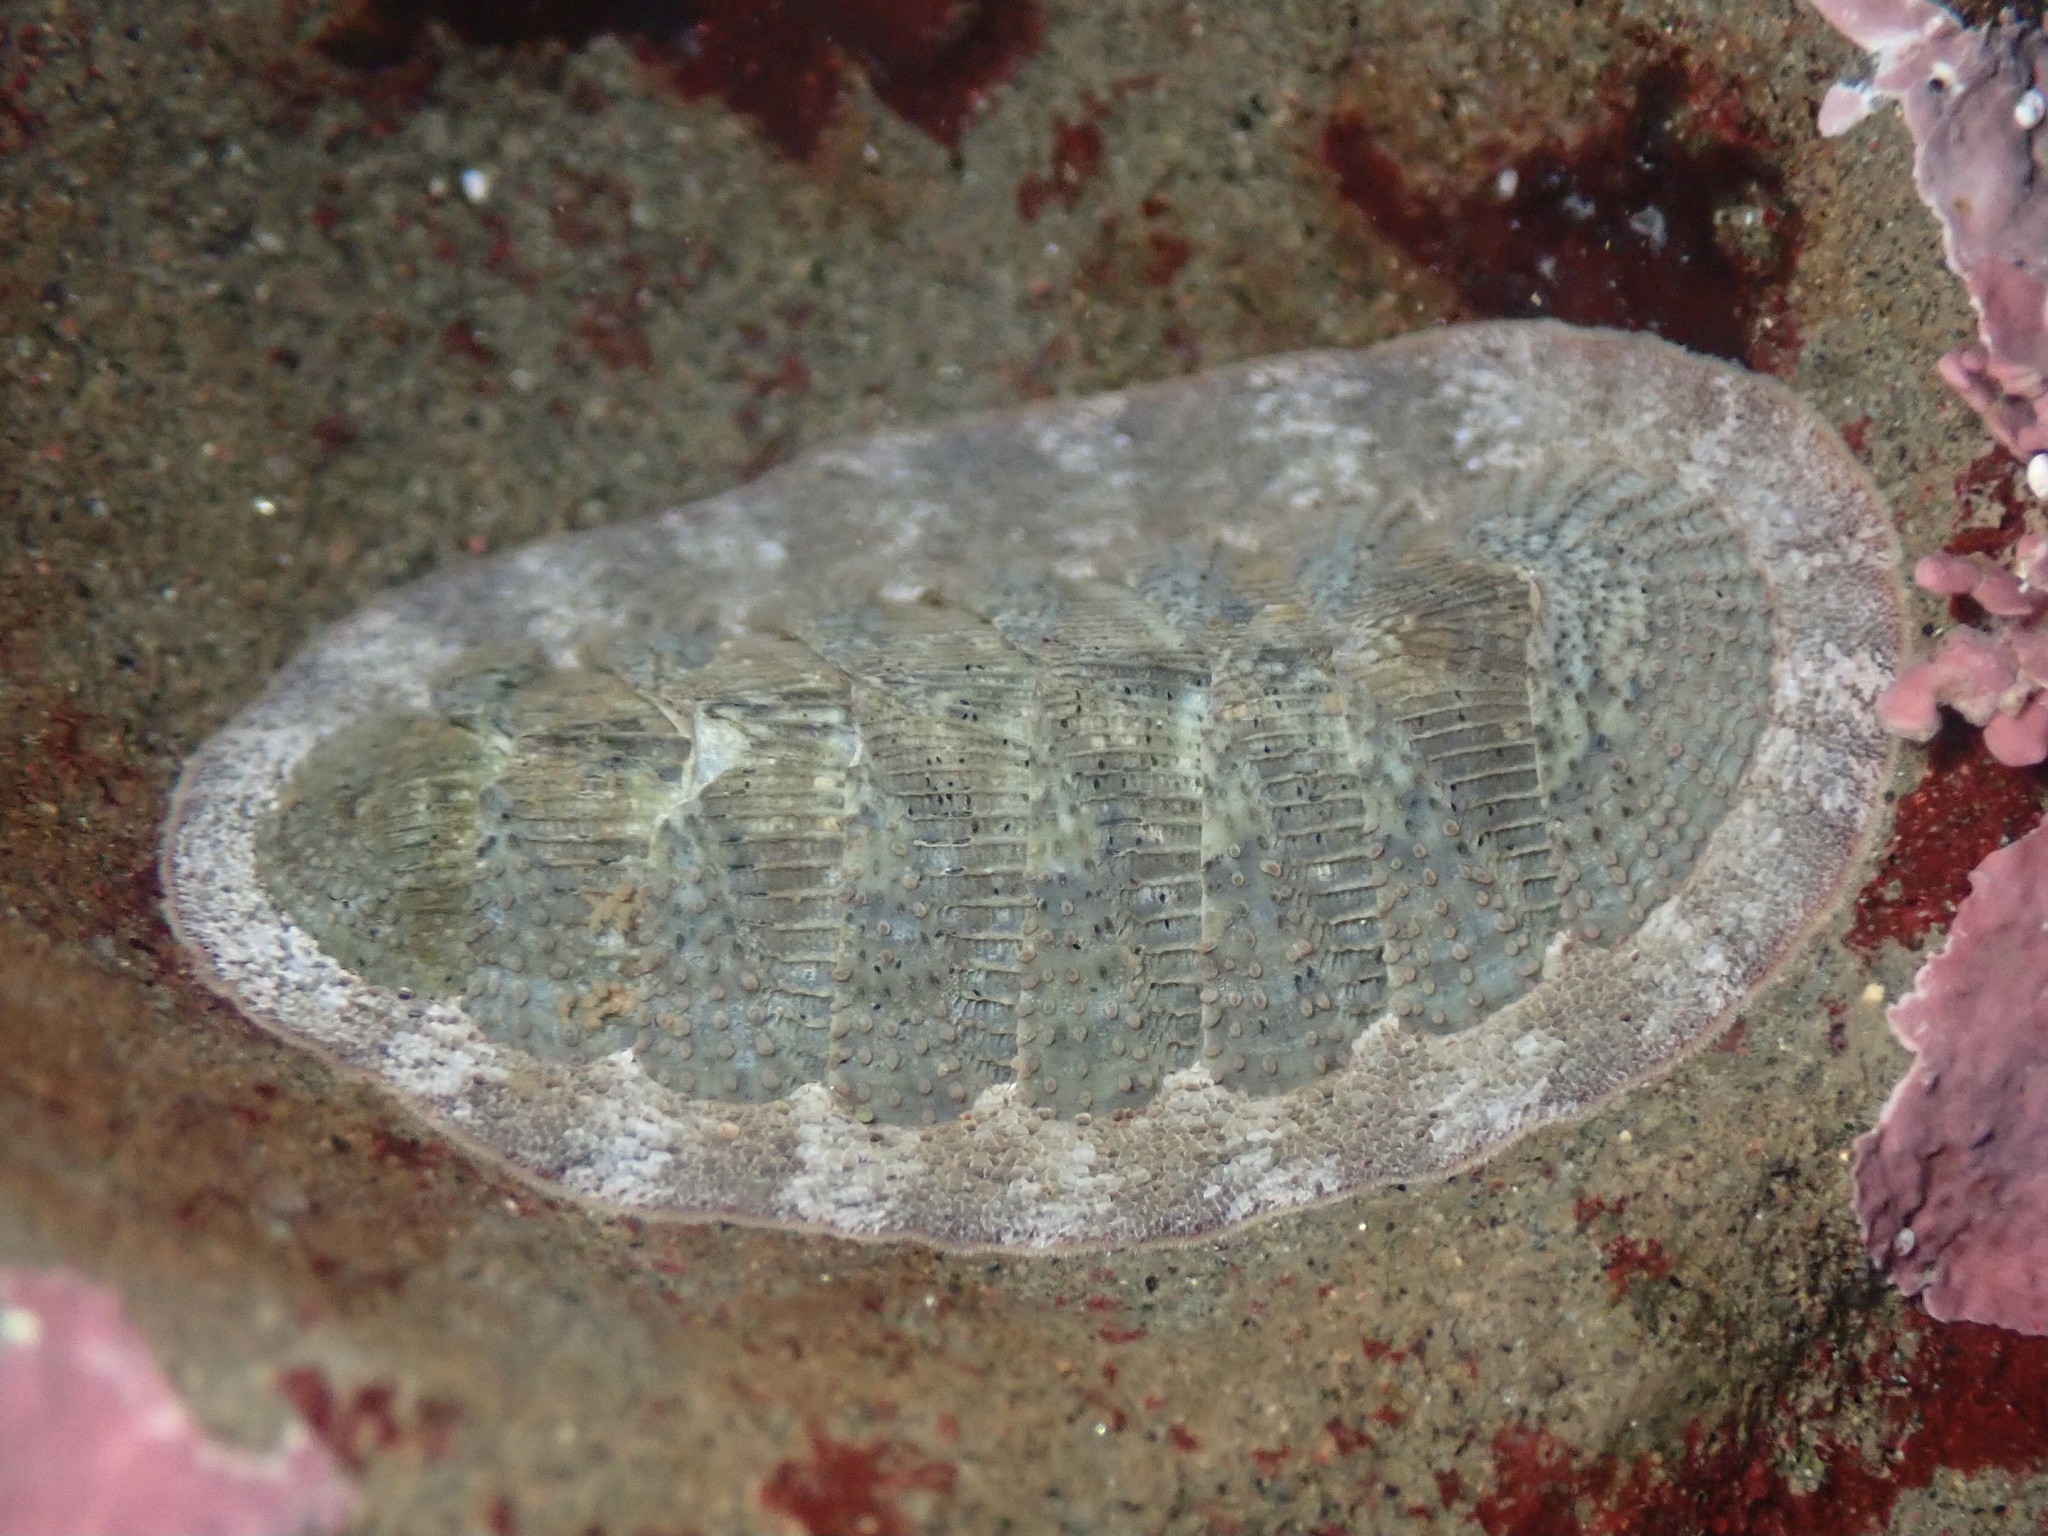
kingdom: Animalia
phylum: Mollusca
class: Polyplacophora
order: Chitonida
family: Ischnochitonidae
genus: Lepidozona
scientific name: Lepidozona cooperi
